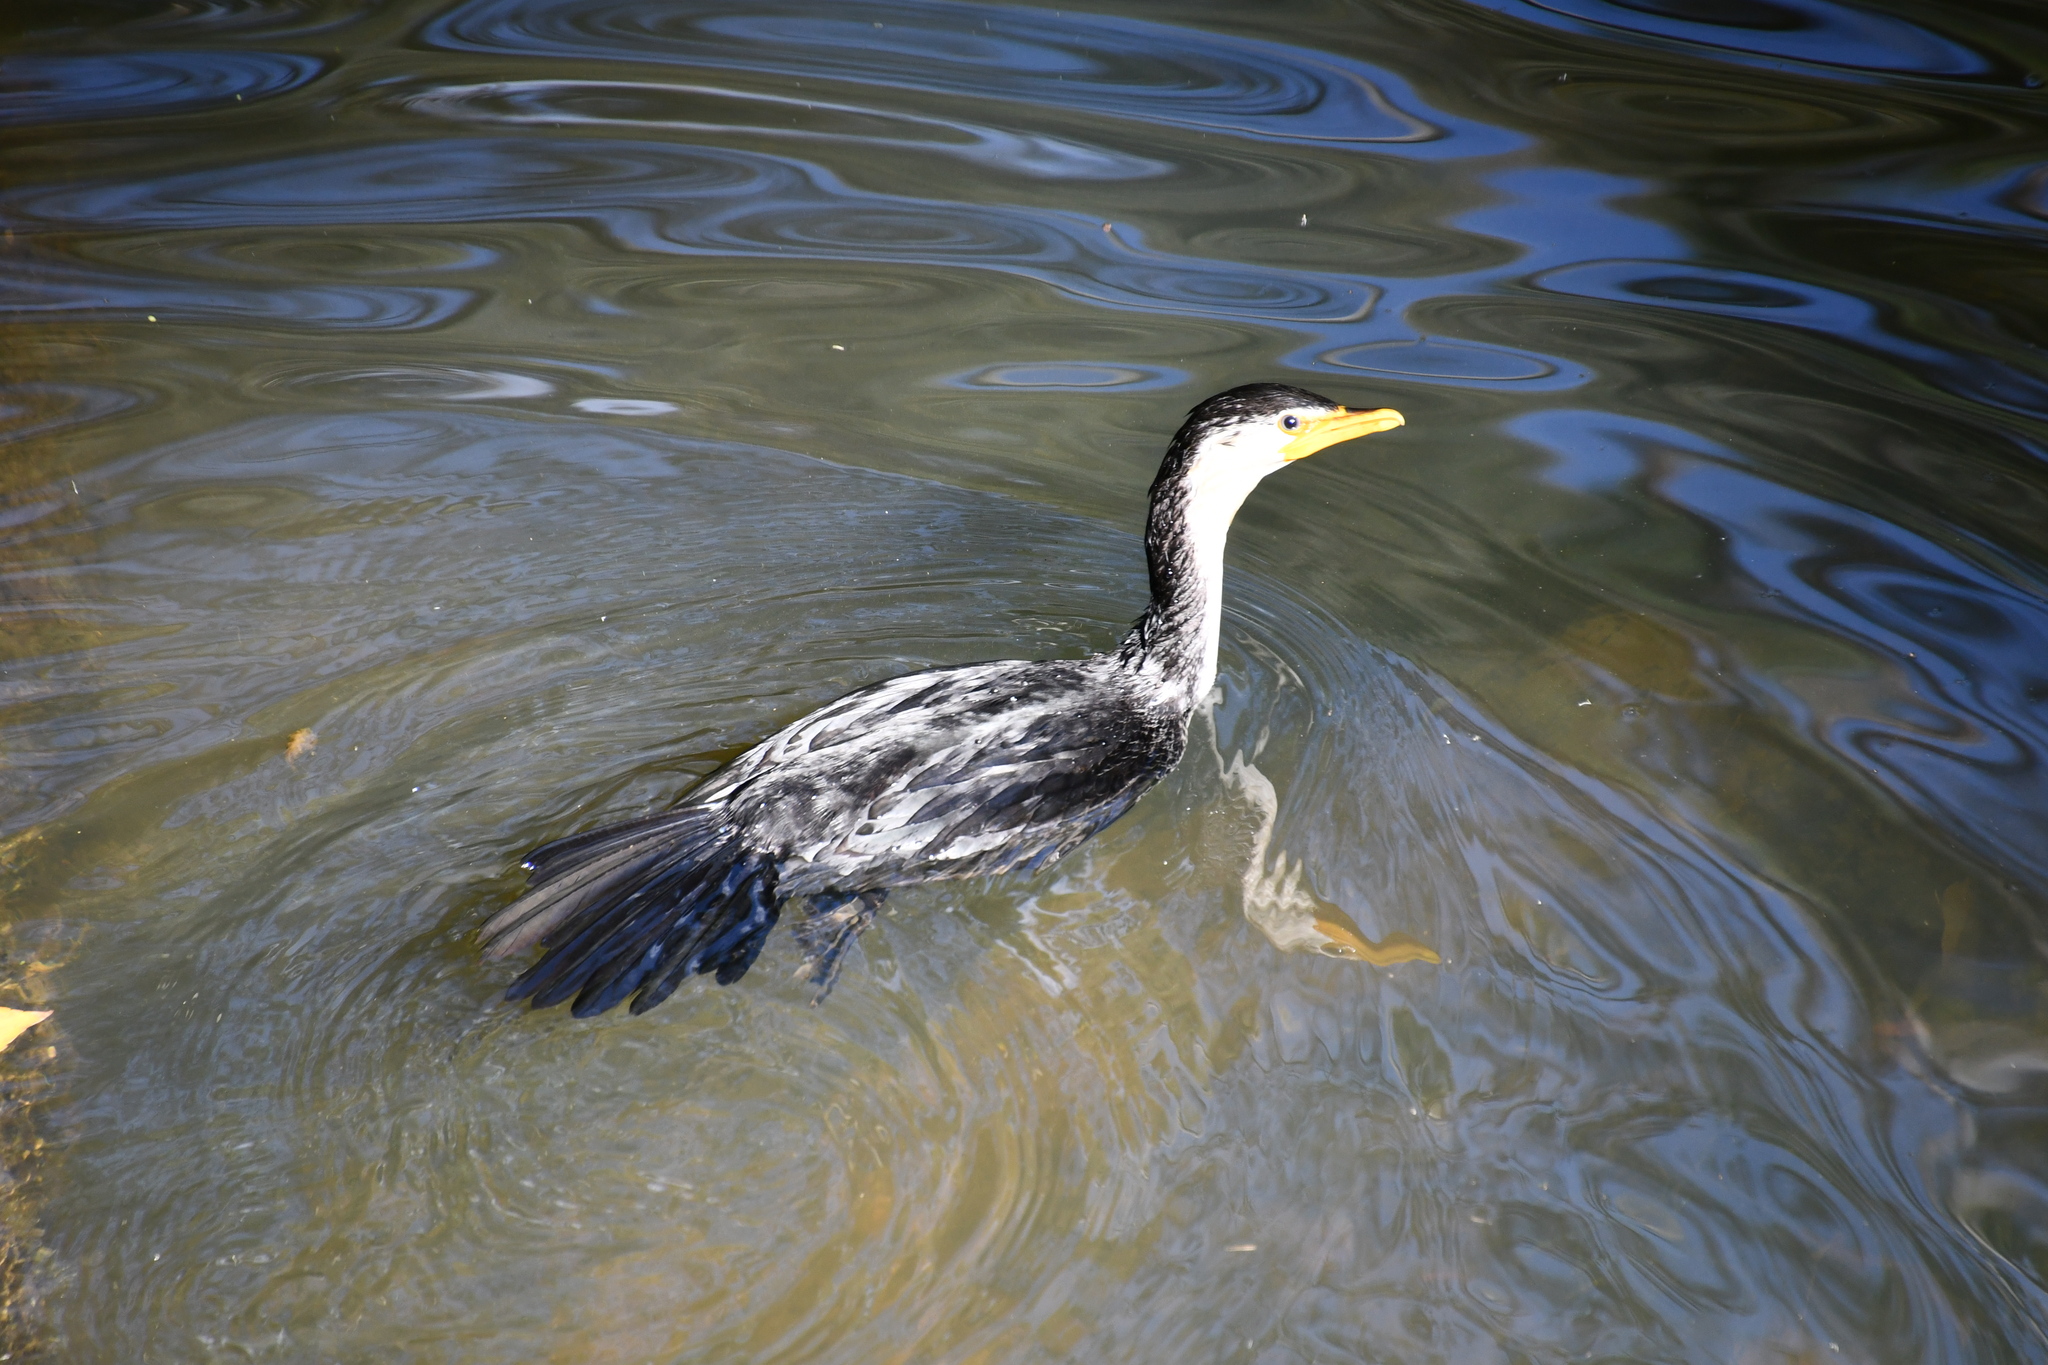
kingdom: Animalia
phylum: Chordata
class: Aves
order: Suliformes
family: Phalacrocoracidae
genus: Microcarbo
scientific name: Microcarbo melanoleucos
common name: Little pied cormorant
